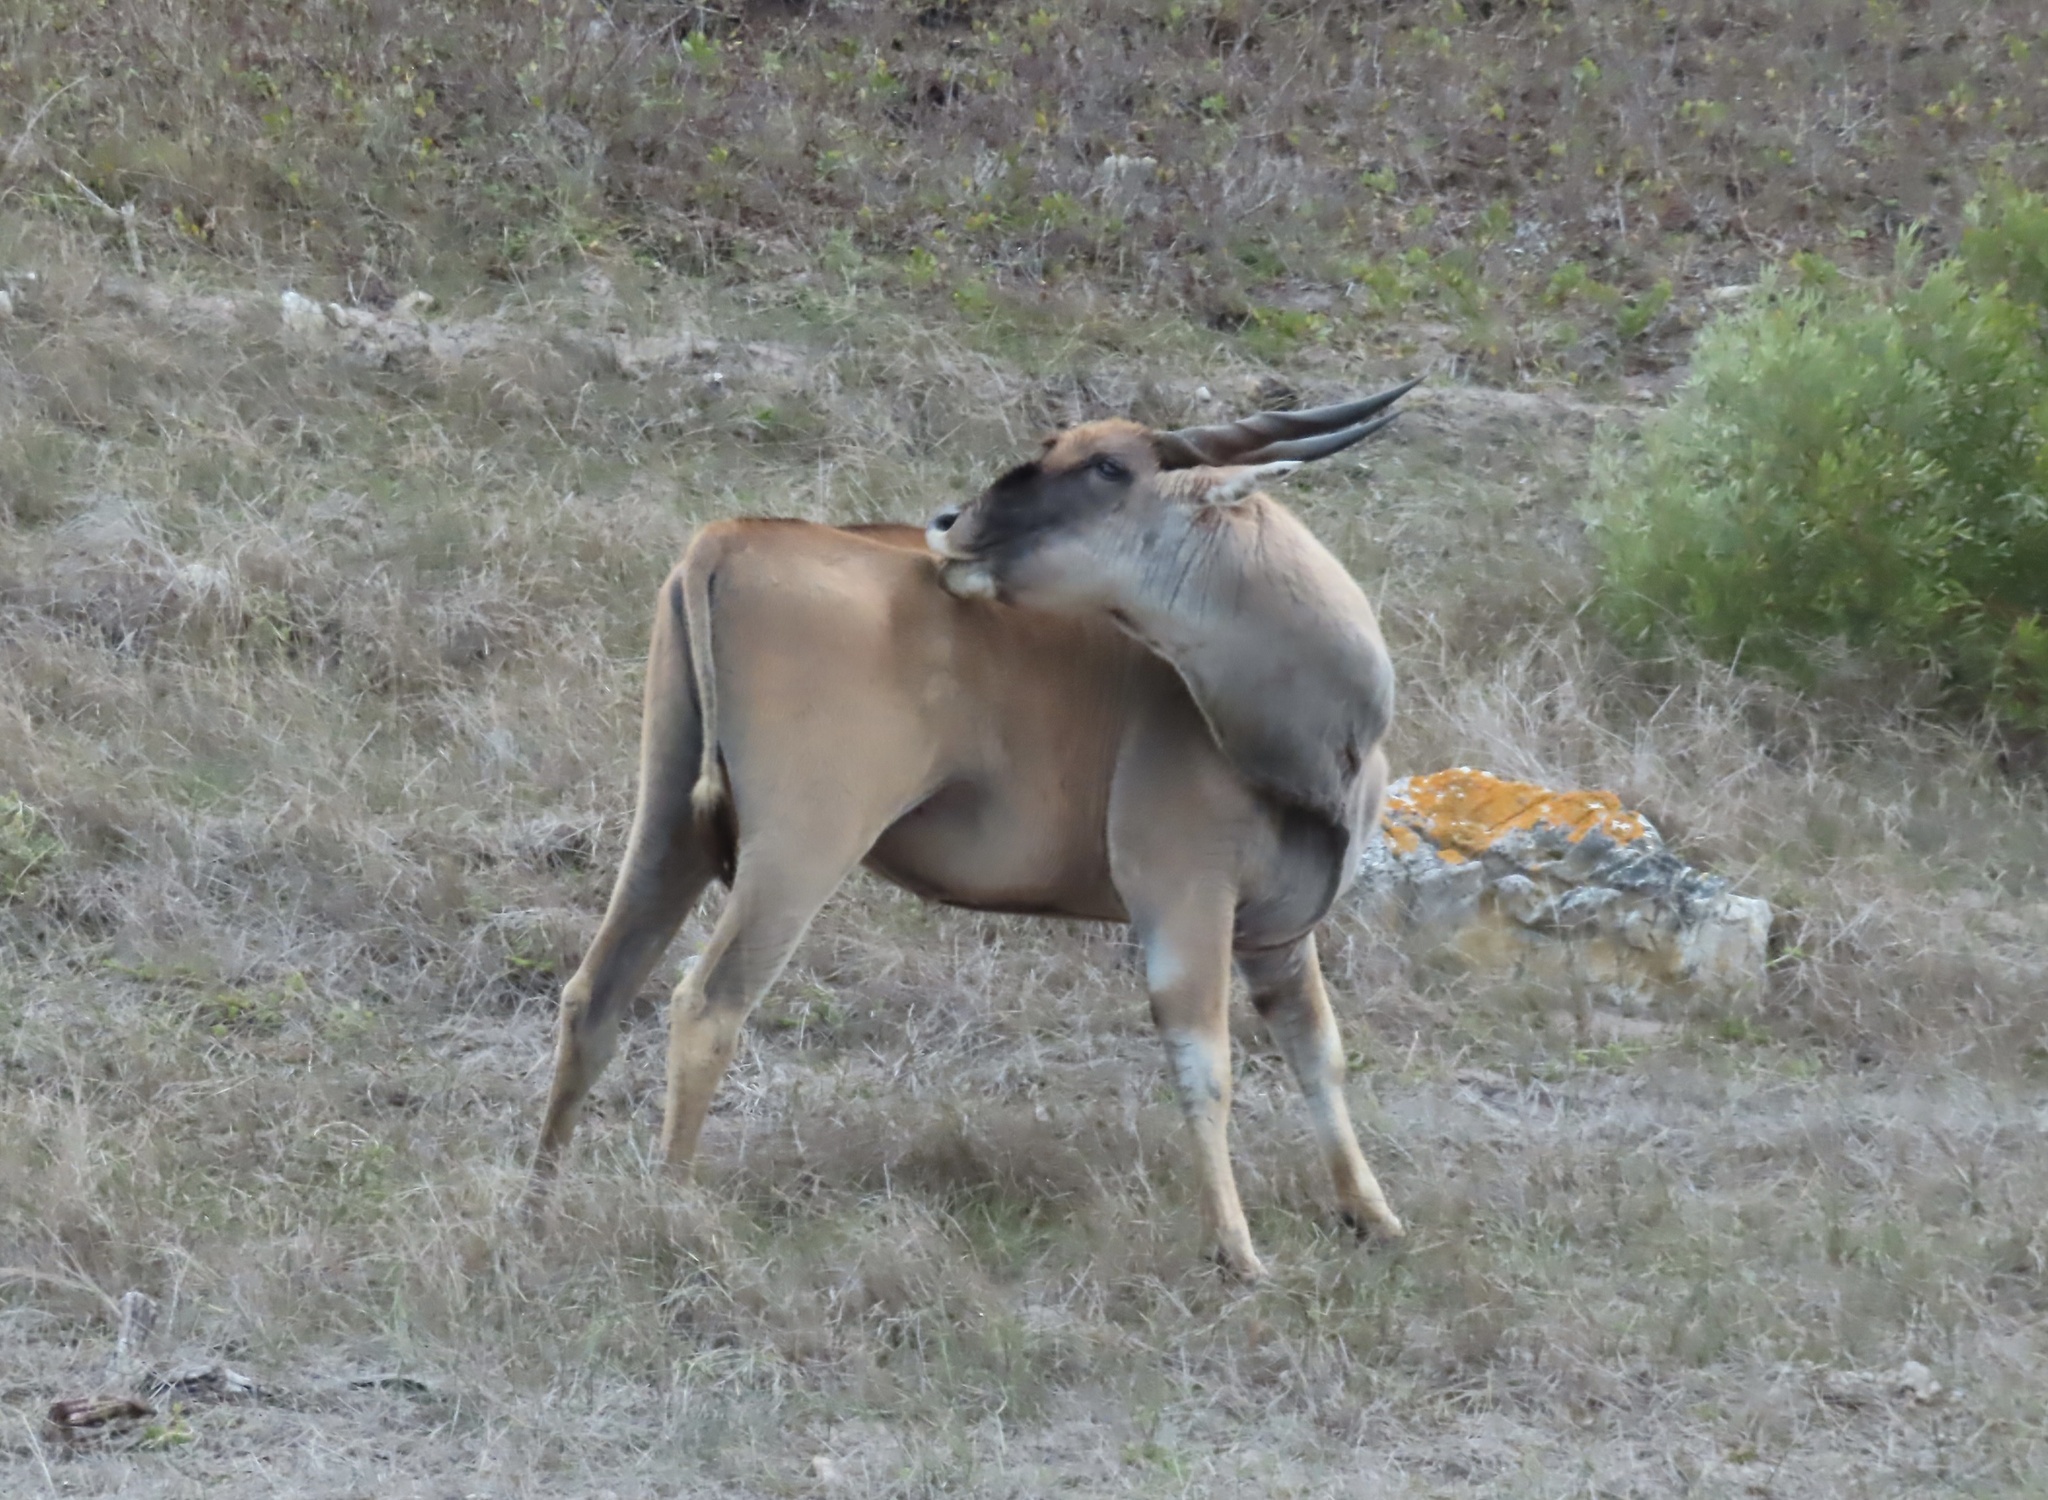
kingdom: Animalia
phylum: Chordata
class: Mammalia
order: Artiodactyla
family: Bovidae
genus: Taurotragus
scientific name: Taurotragus oryx
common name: Common eland
